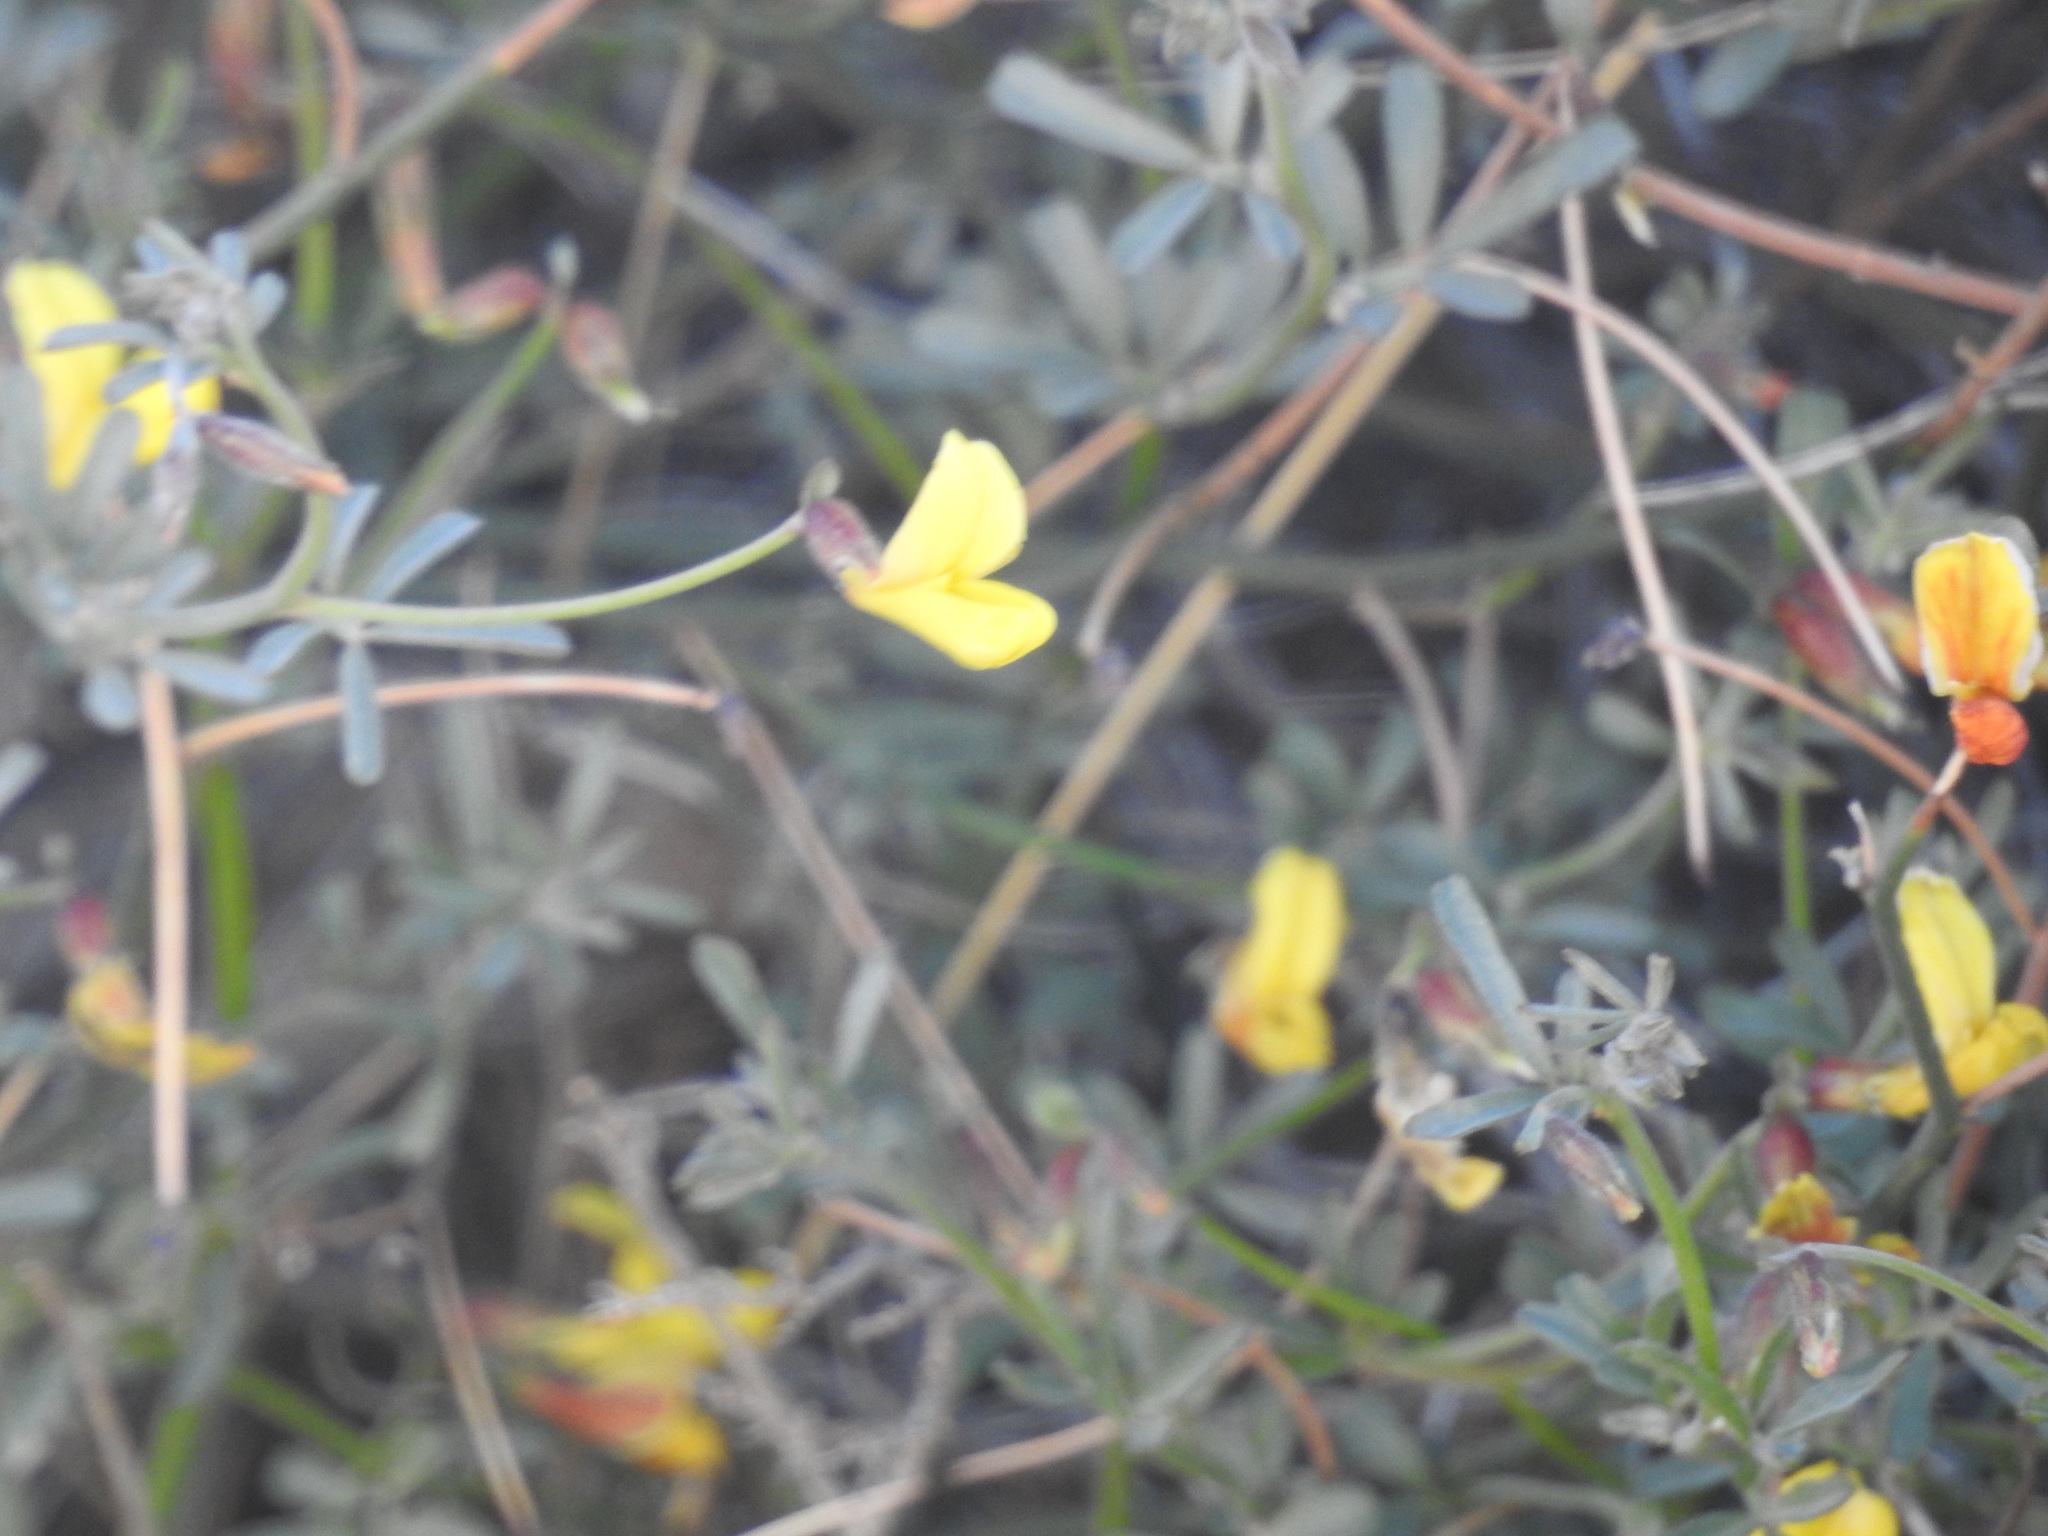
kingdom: Plantae
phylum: Tracheophyta
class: Magnoliopsida
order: Fabales
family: Fabaceae
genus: Acmispon
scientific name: Acmispon rigidus
